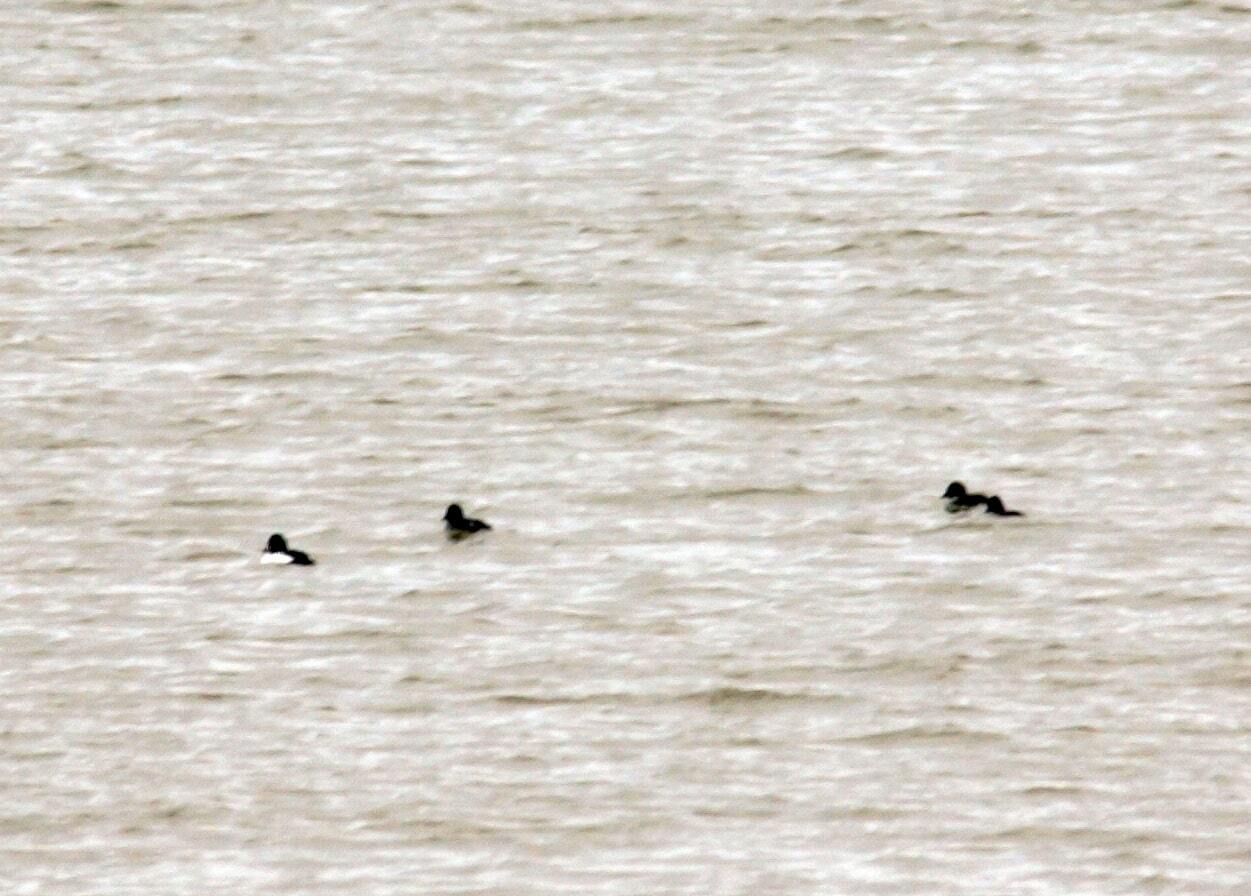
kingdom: Animalia
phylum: Chordata
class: Aves
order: Anseriformes
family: Anatidae
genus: Bucephala
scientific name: Bucephala clangula
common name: Common goldeneye
